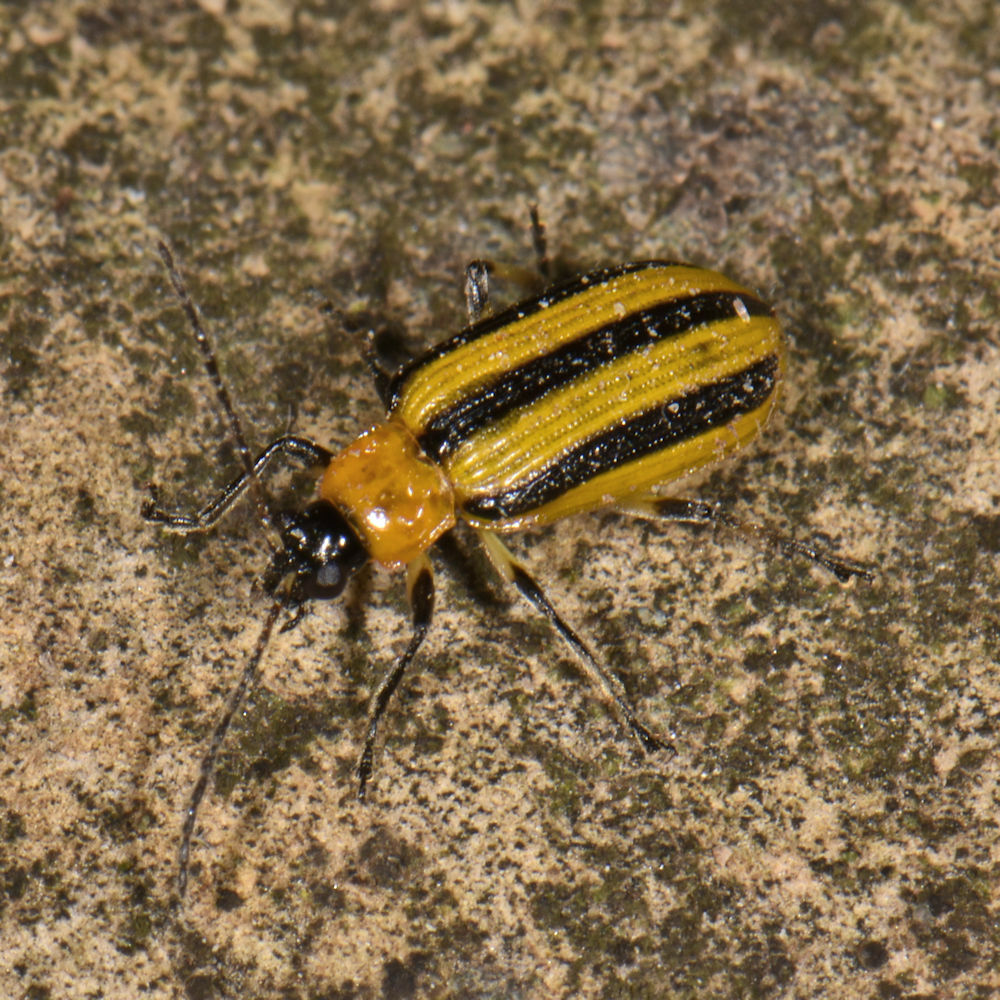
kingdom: Animalia
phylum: Arthropoda
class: Insecta
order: Coleoptera
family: Chrysomelidae
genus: Acalymma
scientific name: Acalymma vittatum
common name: Striped cucumber beetle
